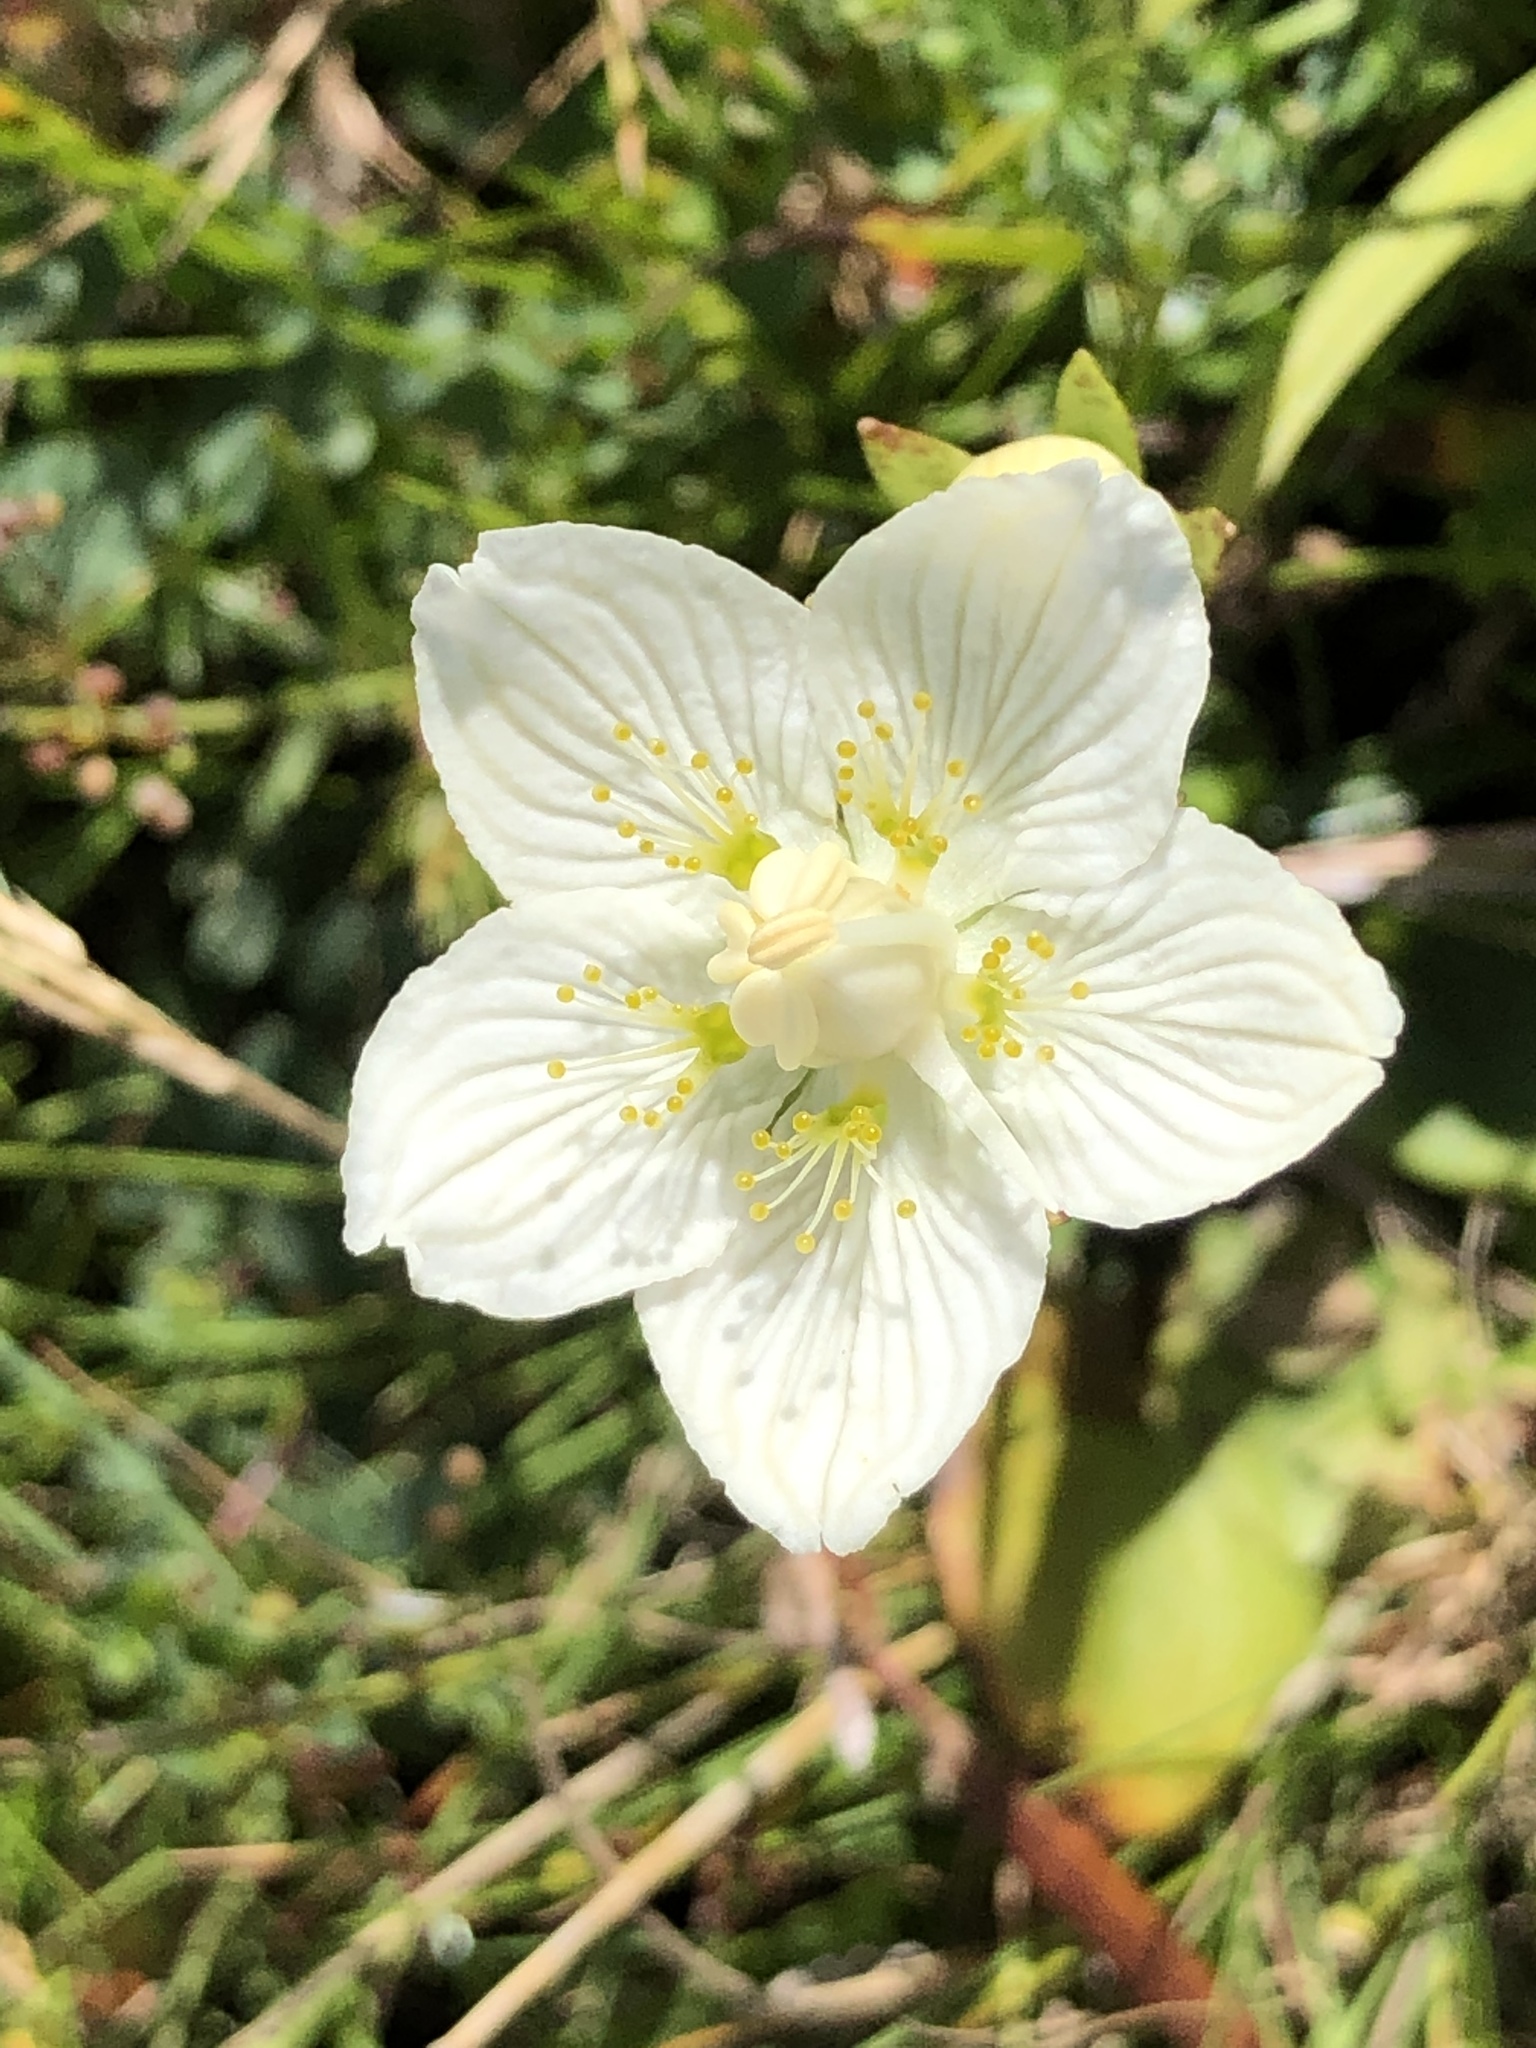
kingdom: Plantae
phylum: Tracheophyta
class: Magnoliopsida
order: Celastrales
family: Parnassiaceae
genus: Parnassia
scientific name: Parnassia palustris
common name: Grass-of-parnassus
